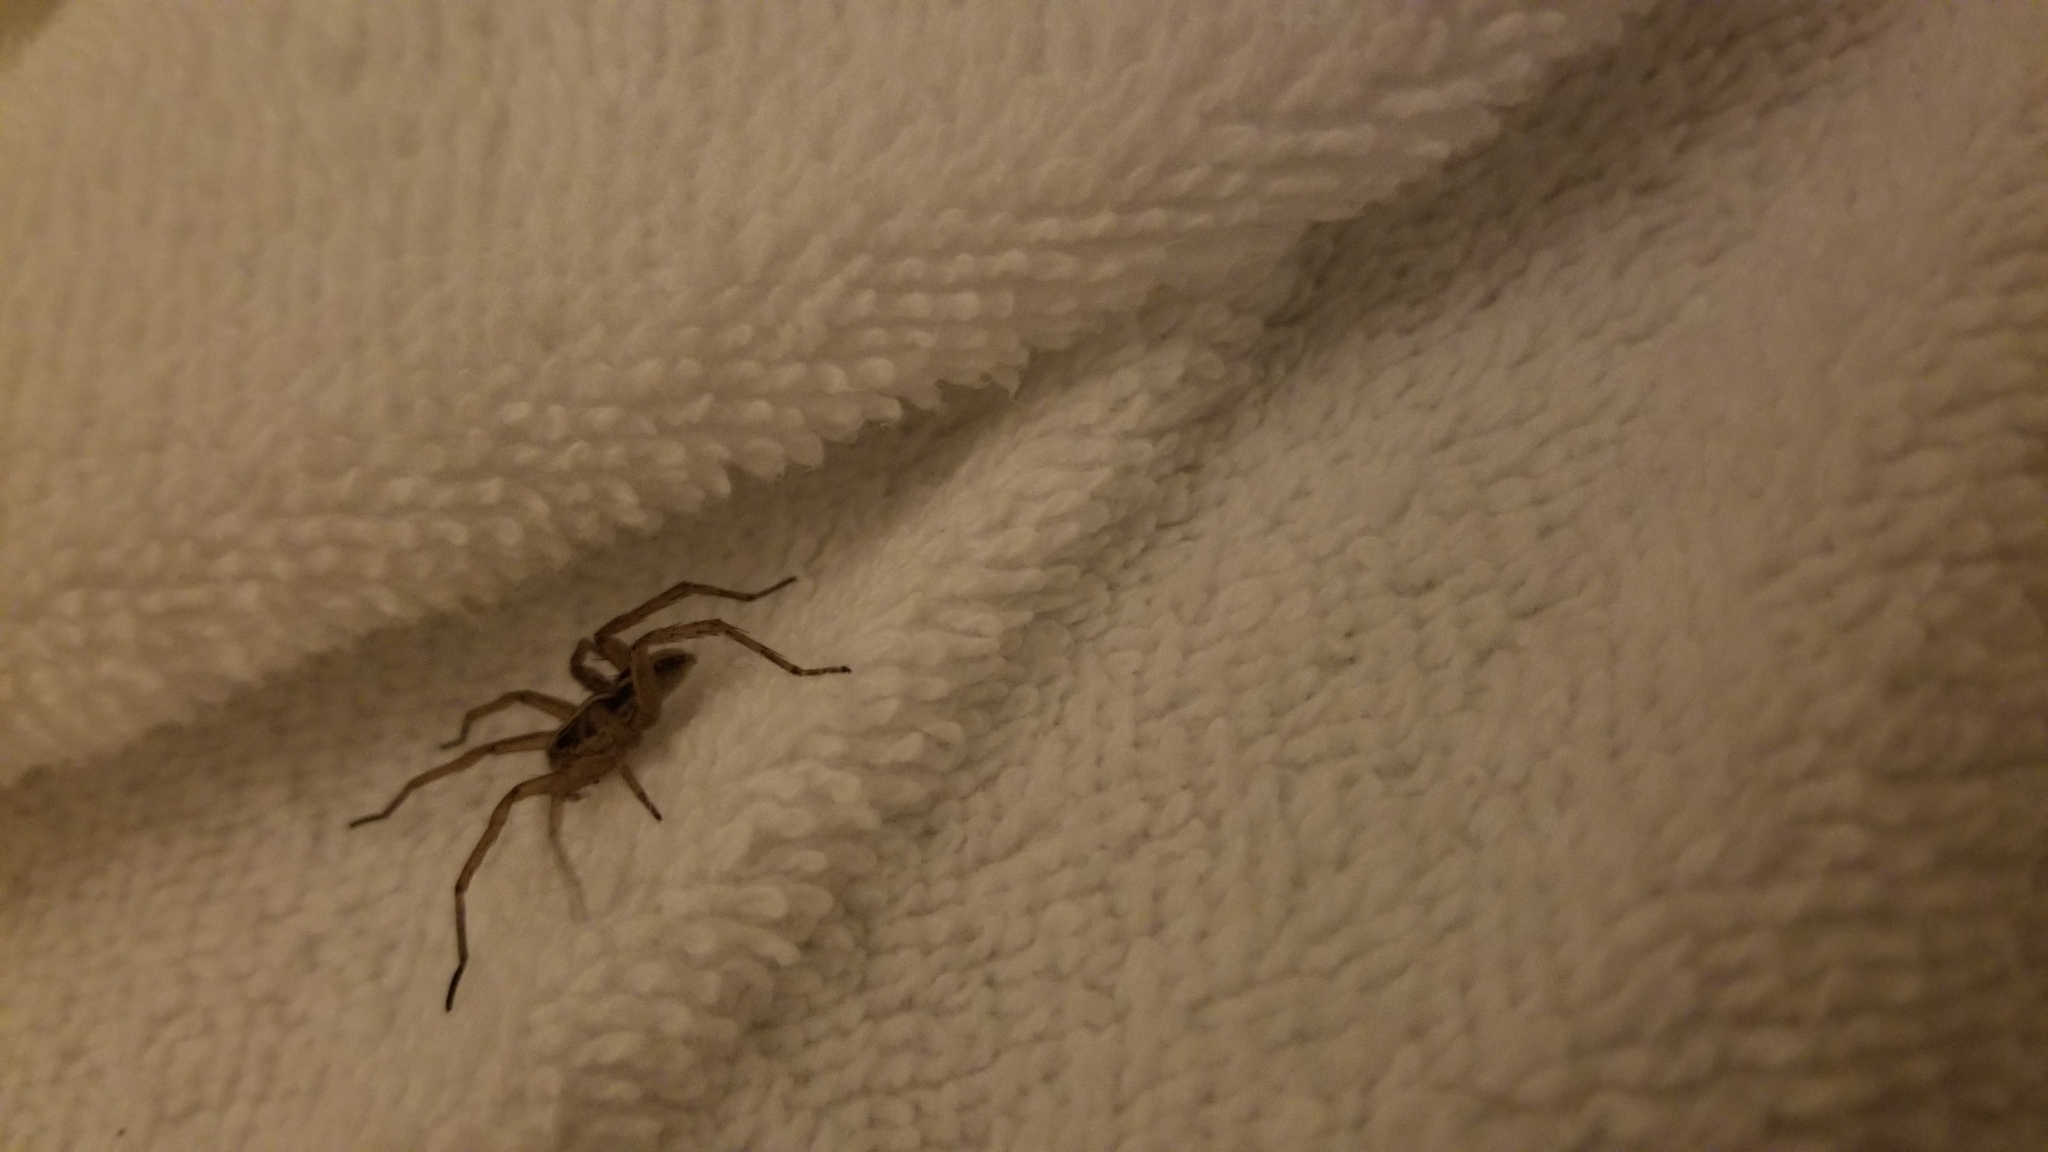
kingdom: Animalia
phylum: Arthropoda
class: Arachnida
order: Araneae
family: Lycosidae
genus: Tigrosa
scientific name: Tigrosa annexa
